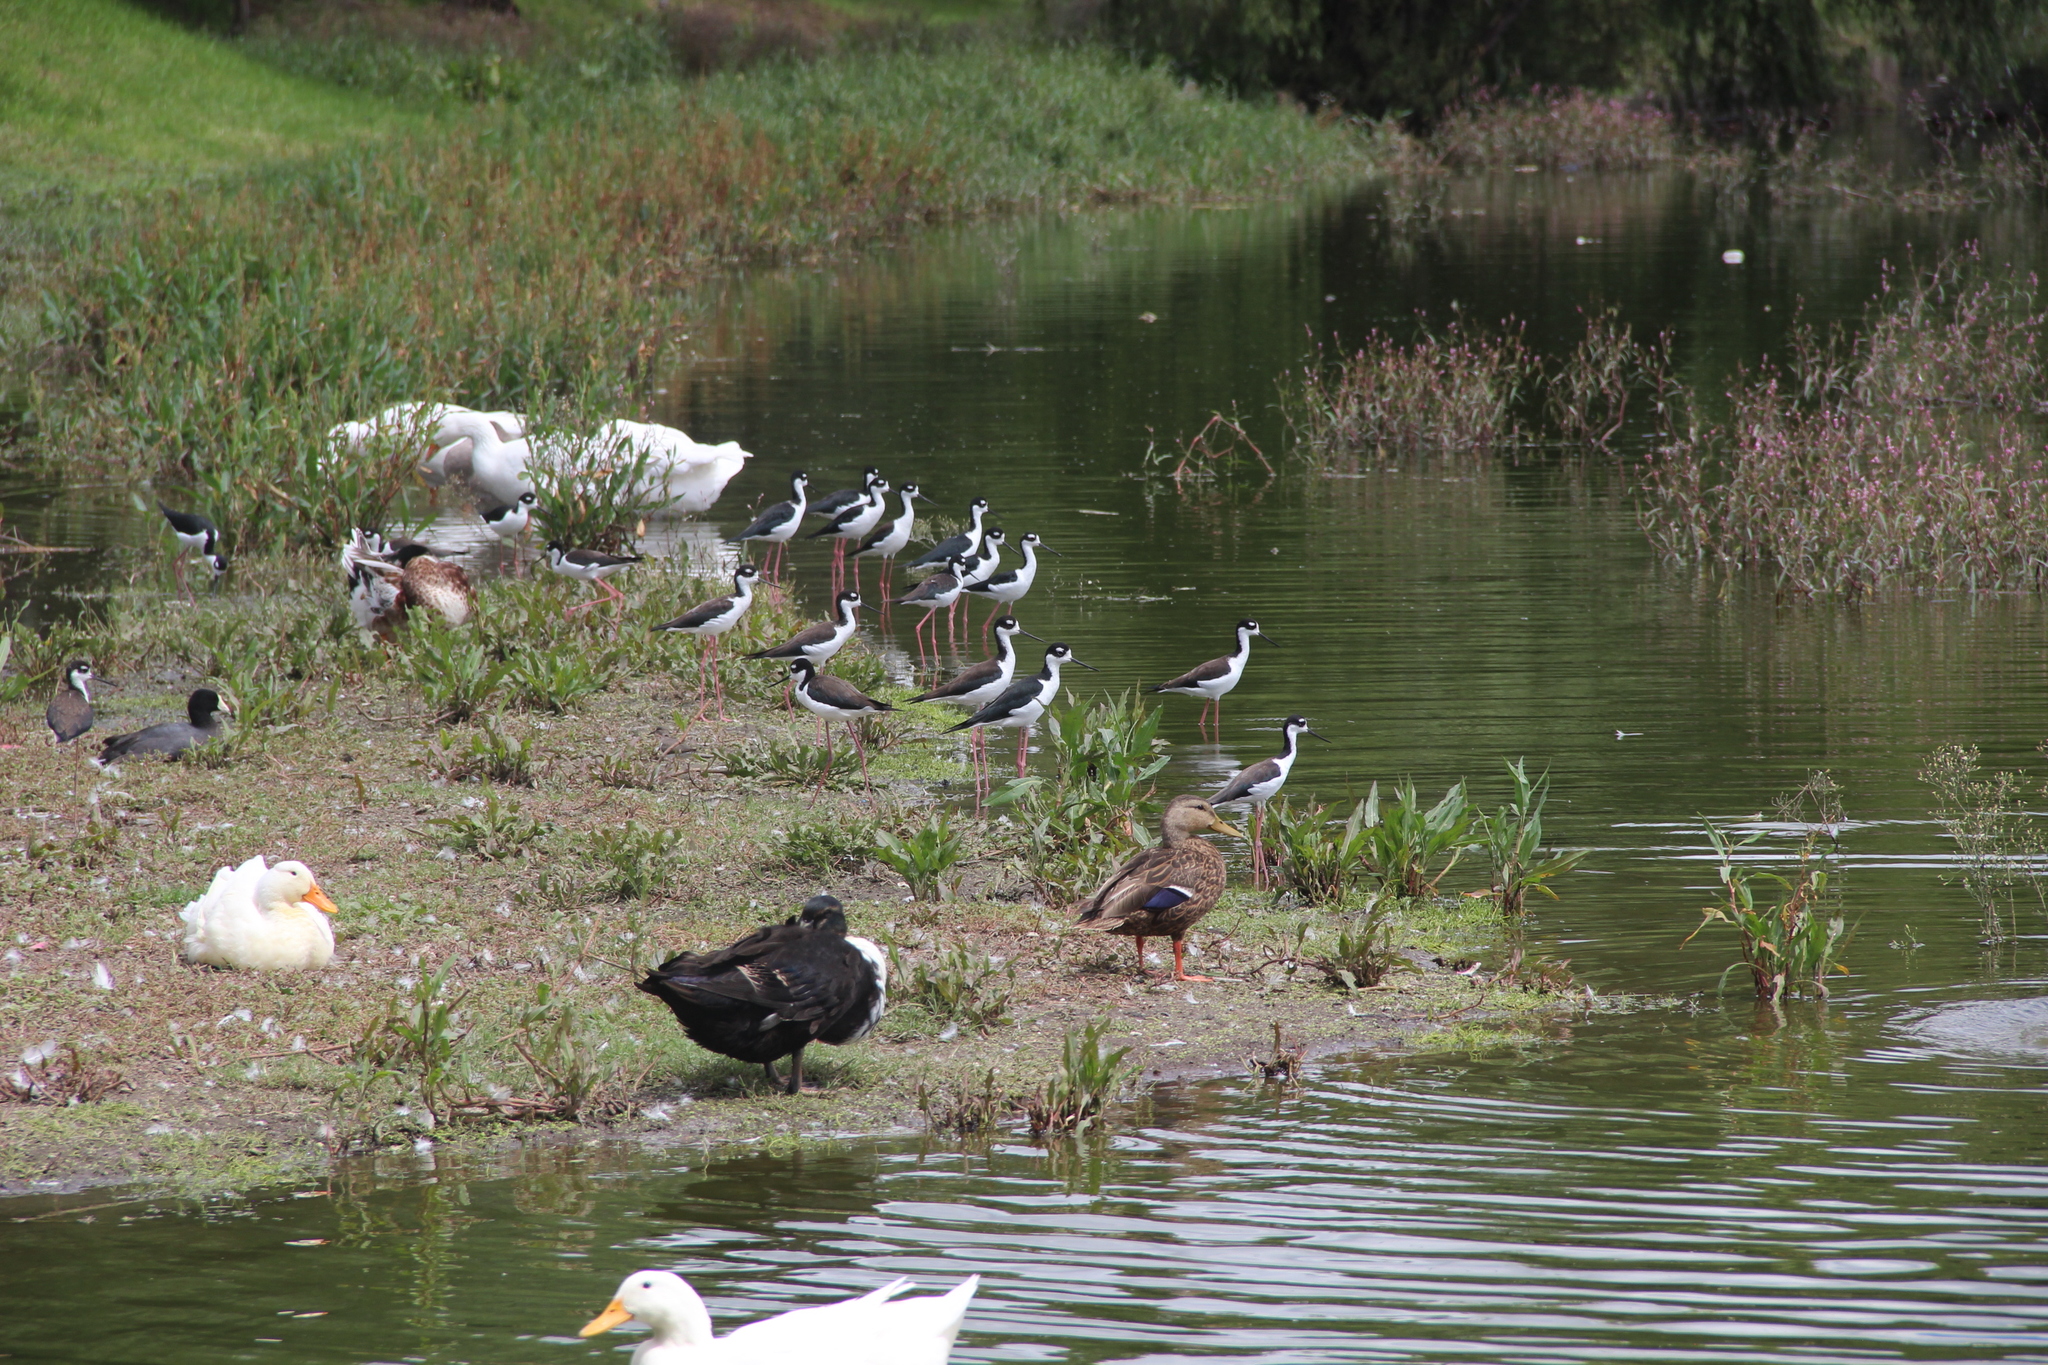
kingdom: Animalia
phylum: Chordata
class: Aves
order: Anseriformes
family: Anatidae
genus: Anas
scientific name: Anas platyrhynchos
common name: Mallard
